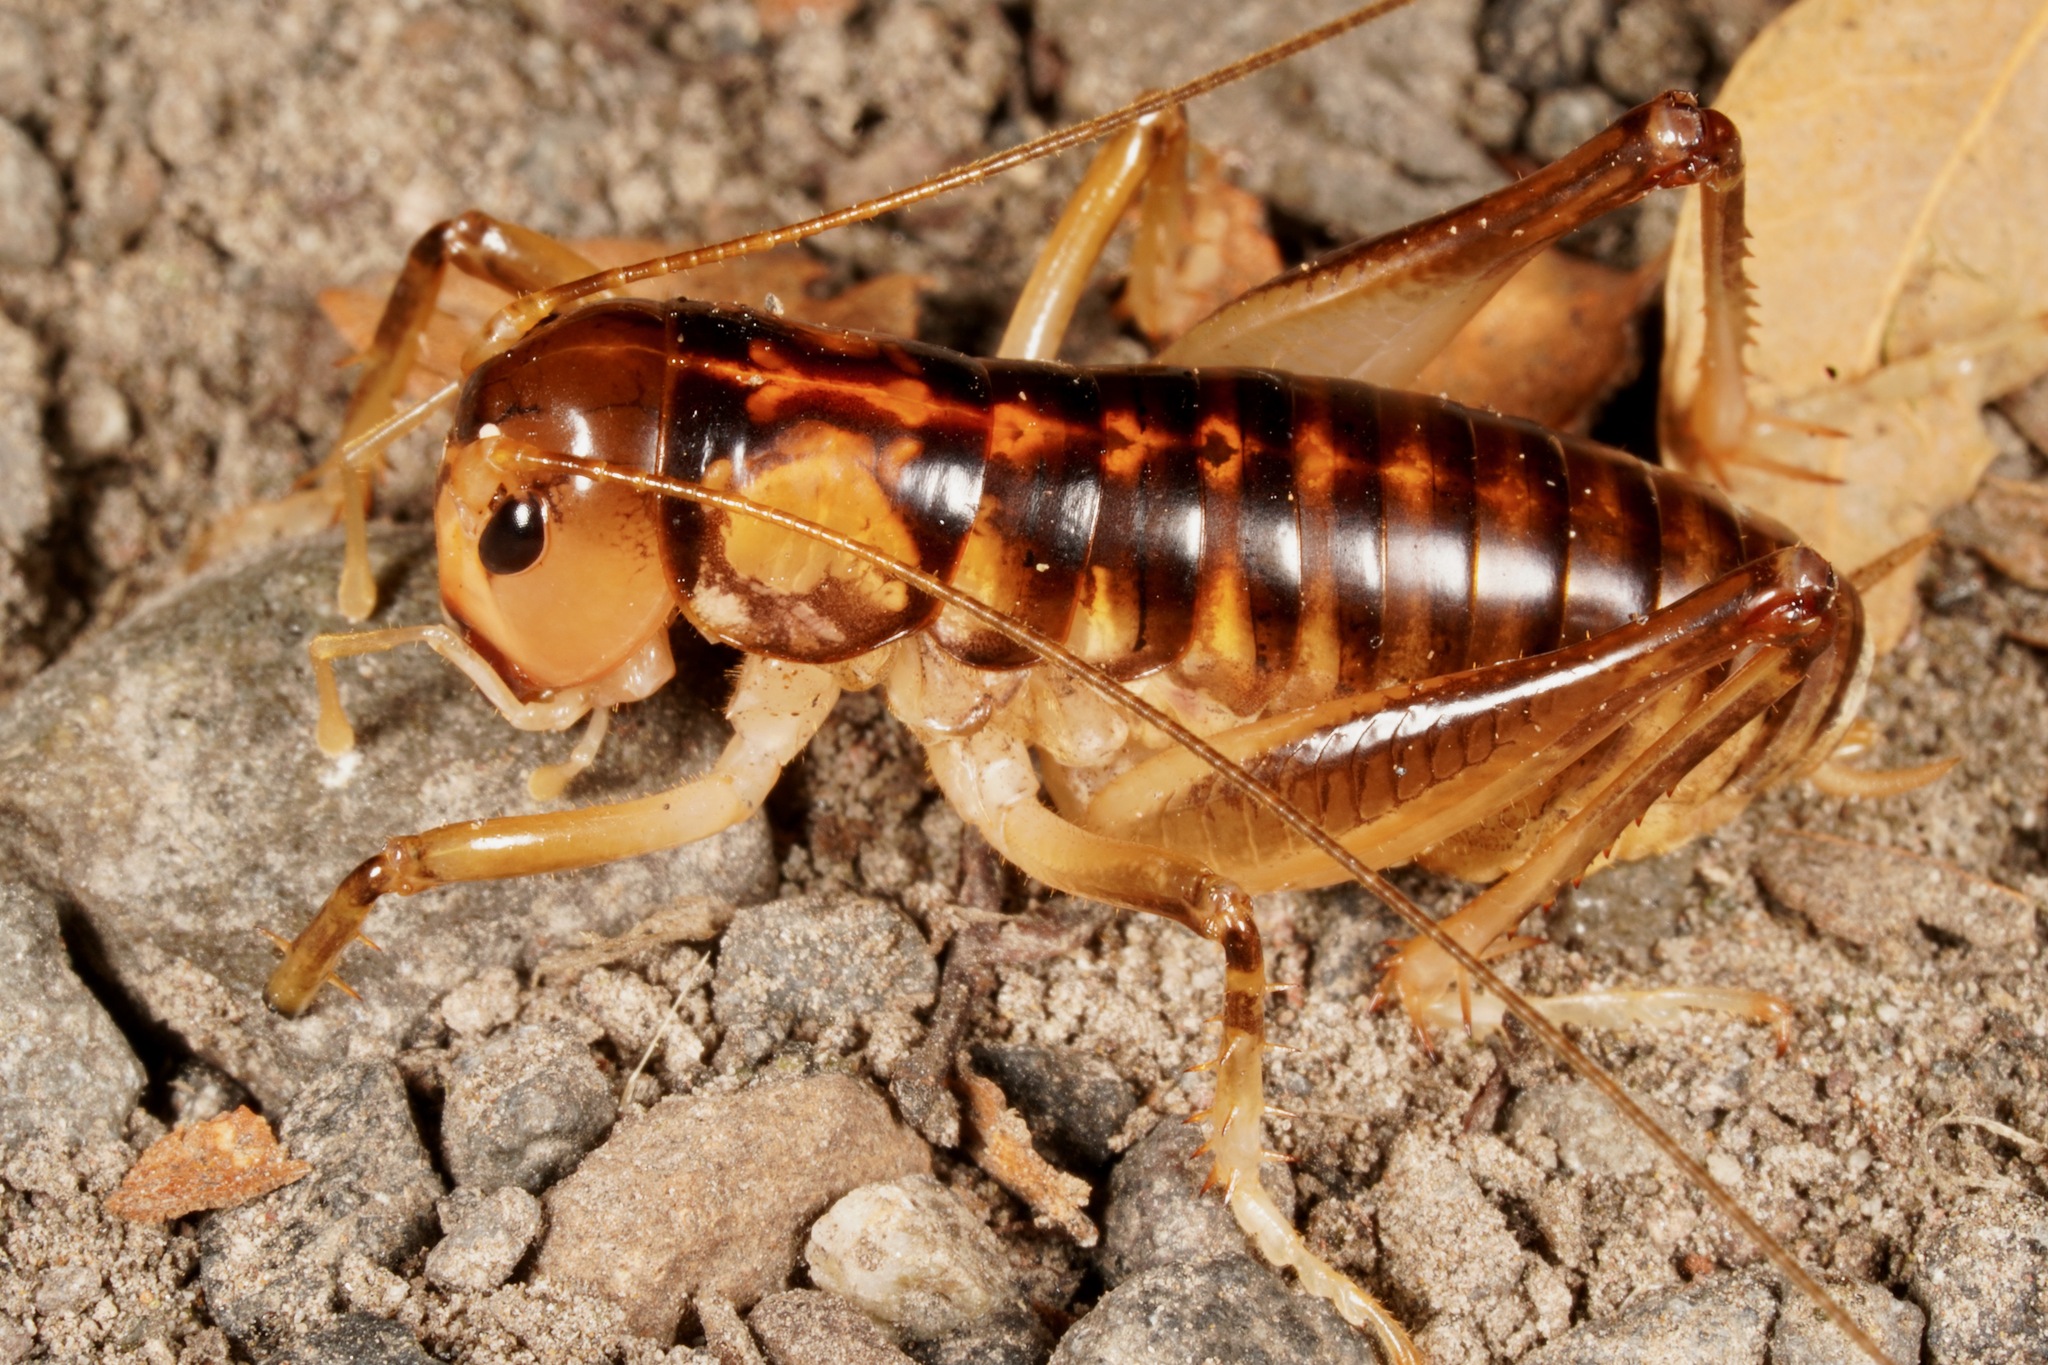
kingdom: Animalia
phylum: Arthropoda
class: Insecta
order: Orthoptera
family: Anostostomatidae
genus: Hemiandrus
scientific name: Hemiandrus pallitarsis
